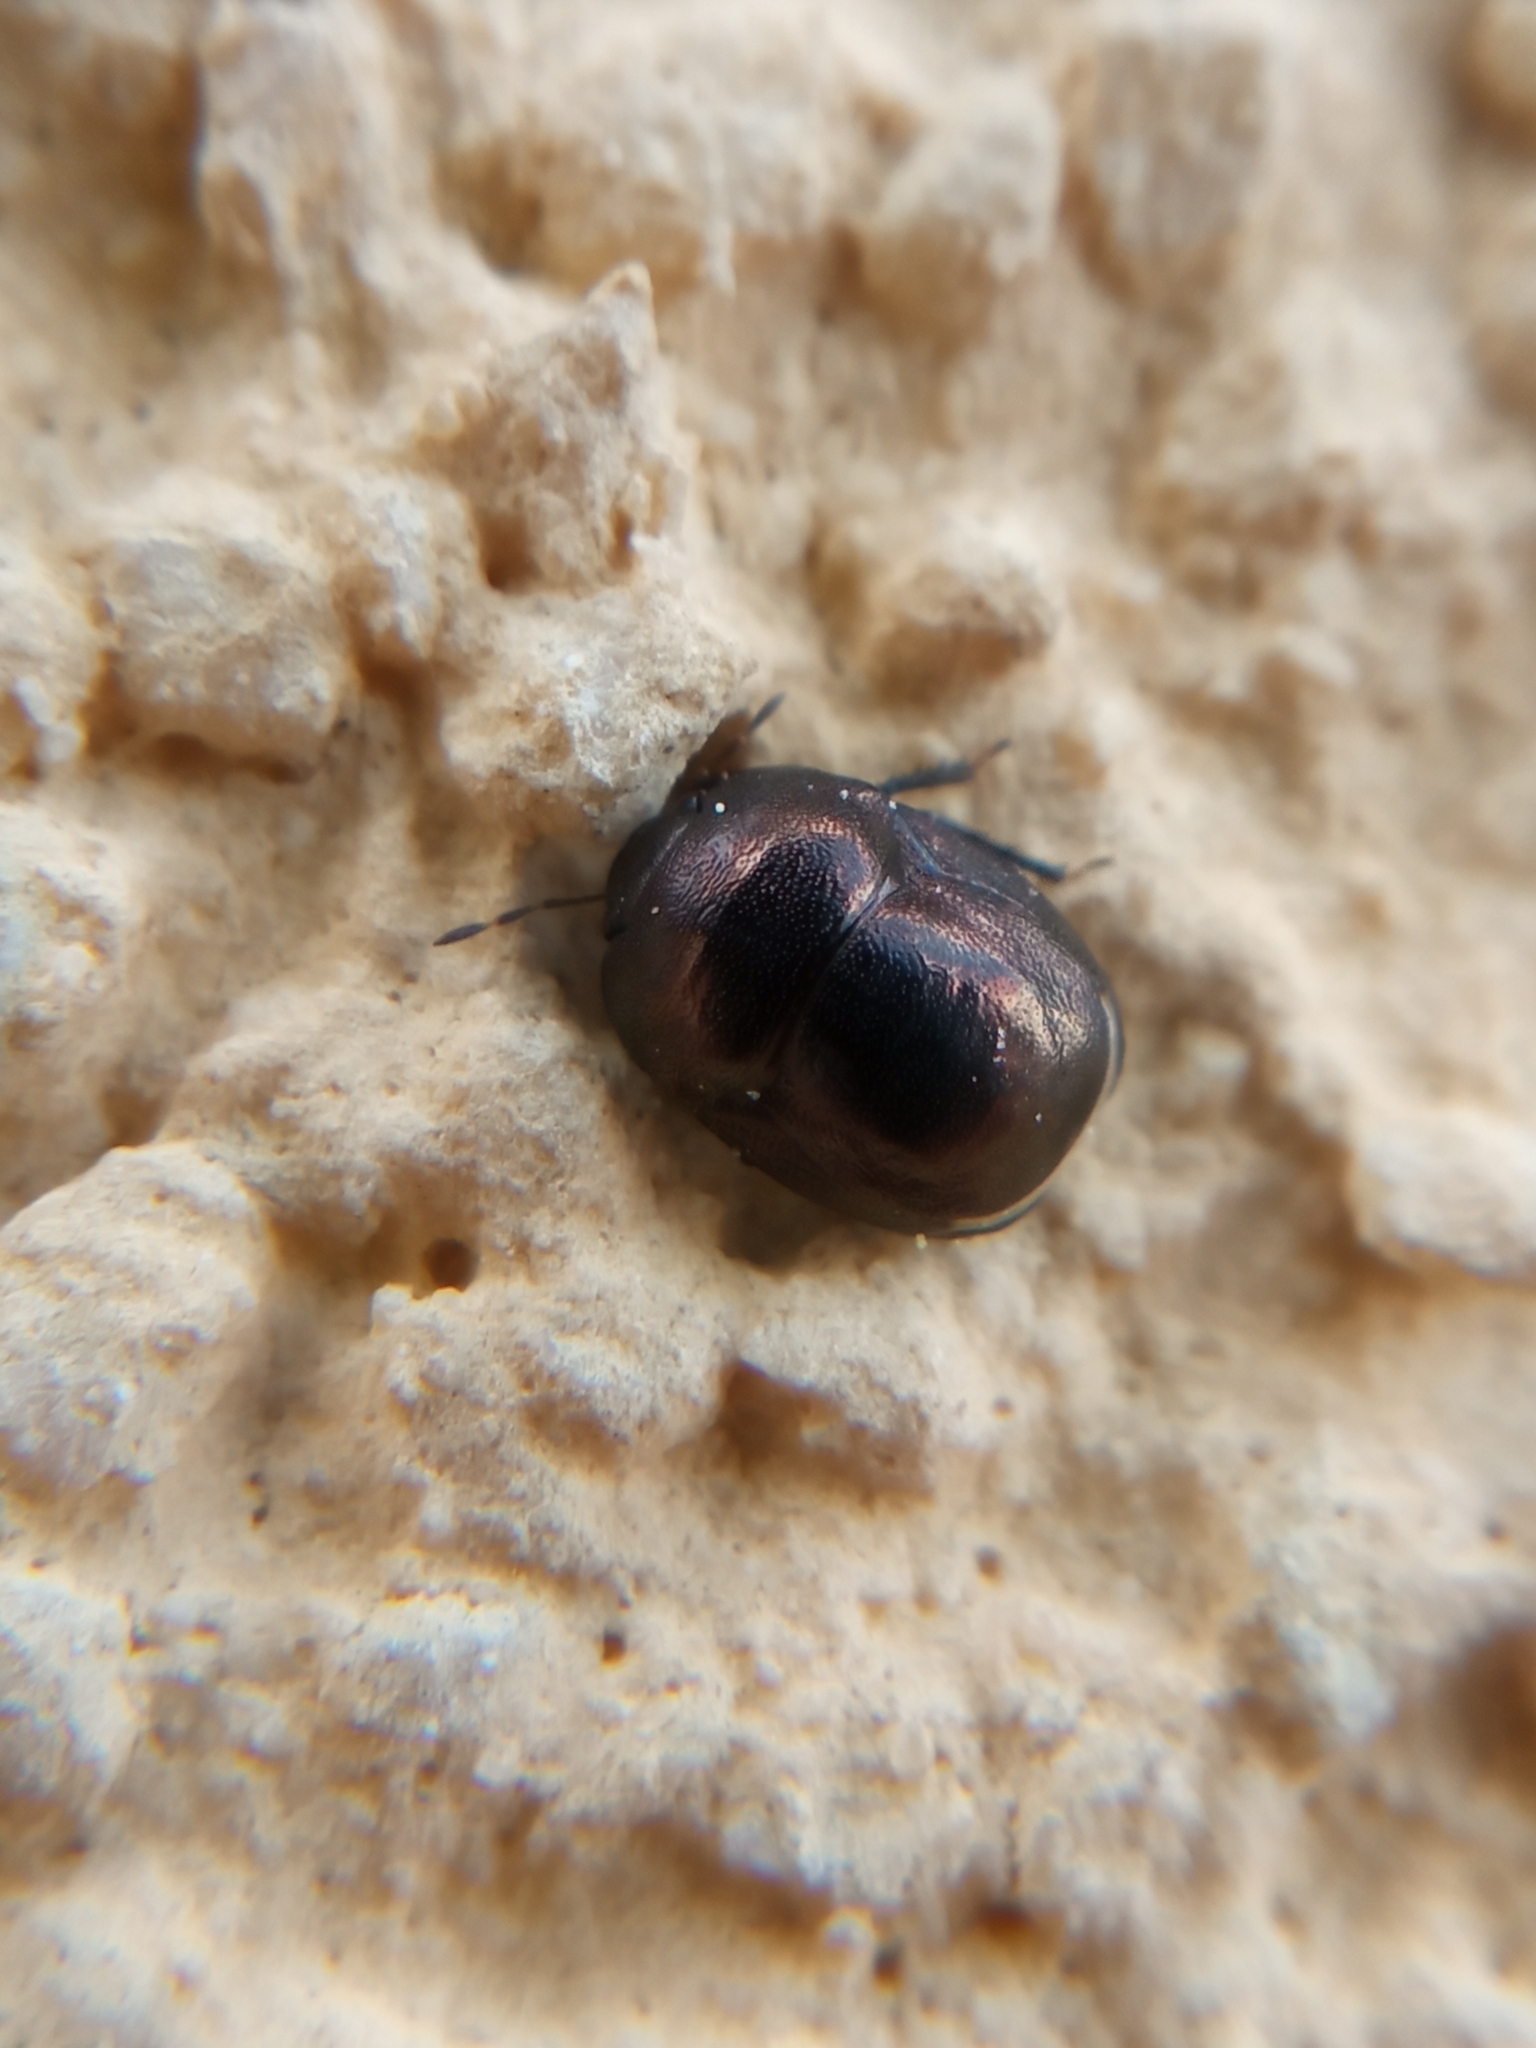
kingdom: Animalia
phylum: Arthropoda
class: Insecta
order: Hemiptera
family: Thyreocoridae
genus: Thyreocoris
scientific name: Thyreocoris scarabaeoides
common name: Negro bug
